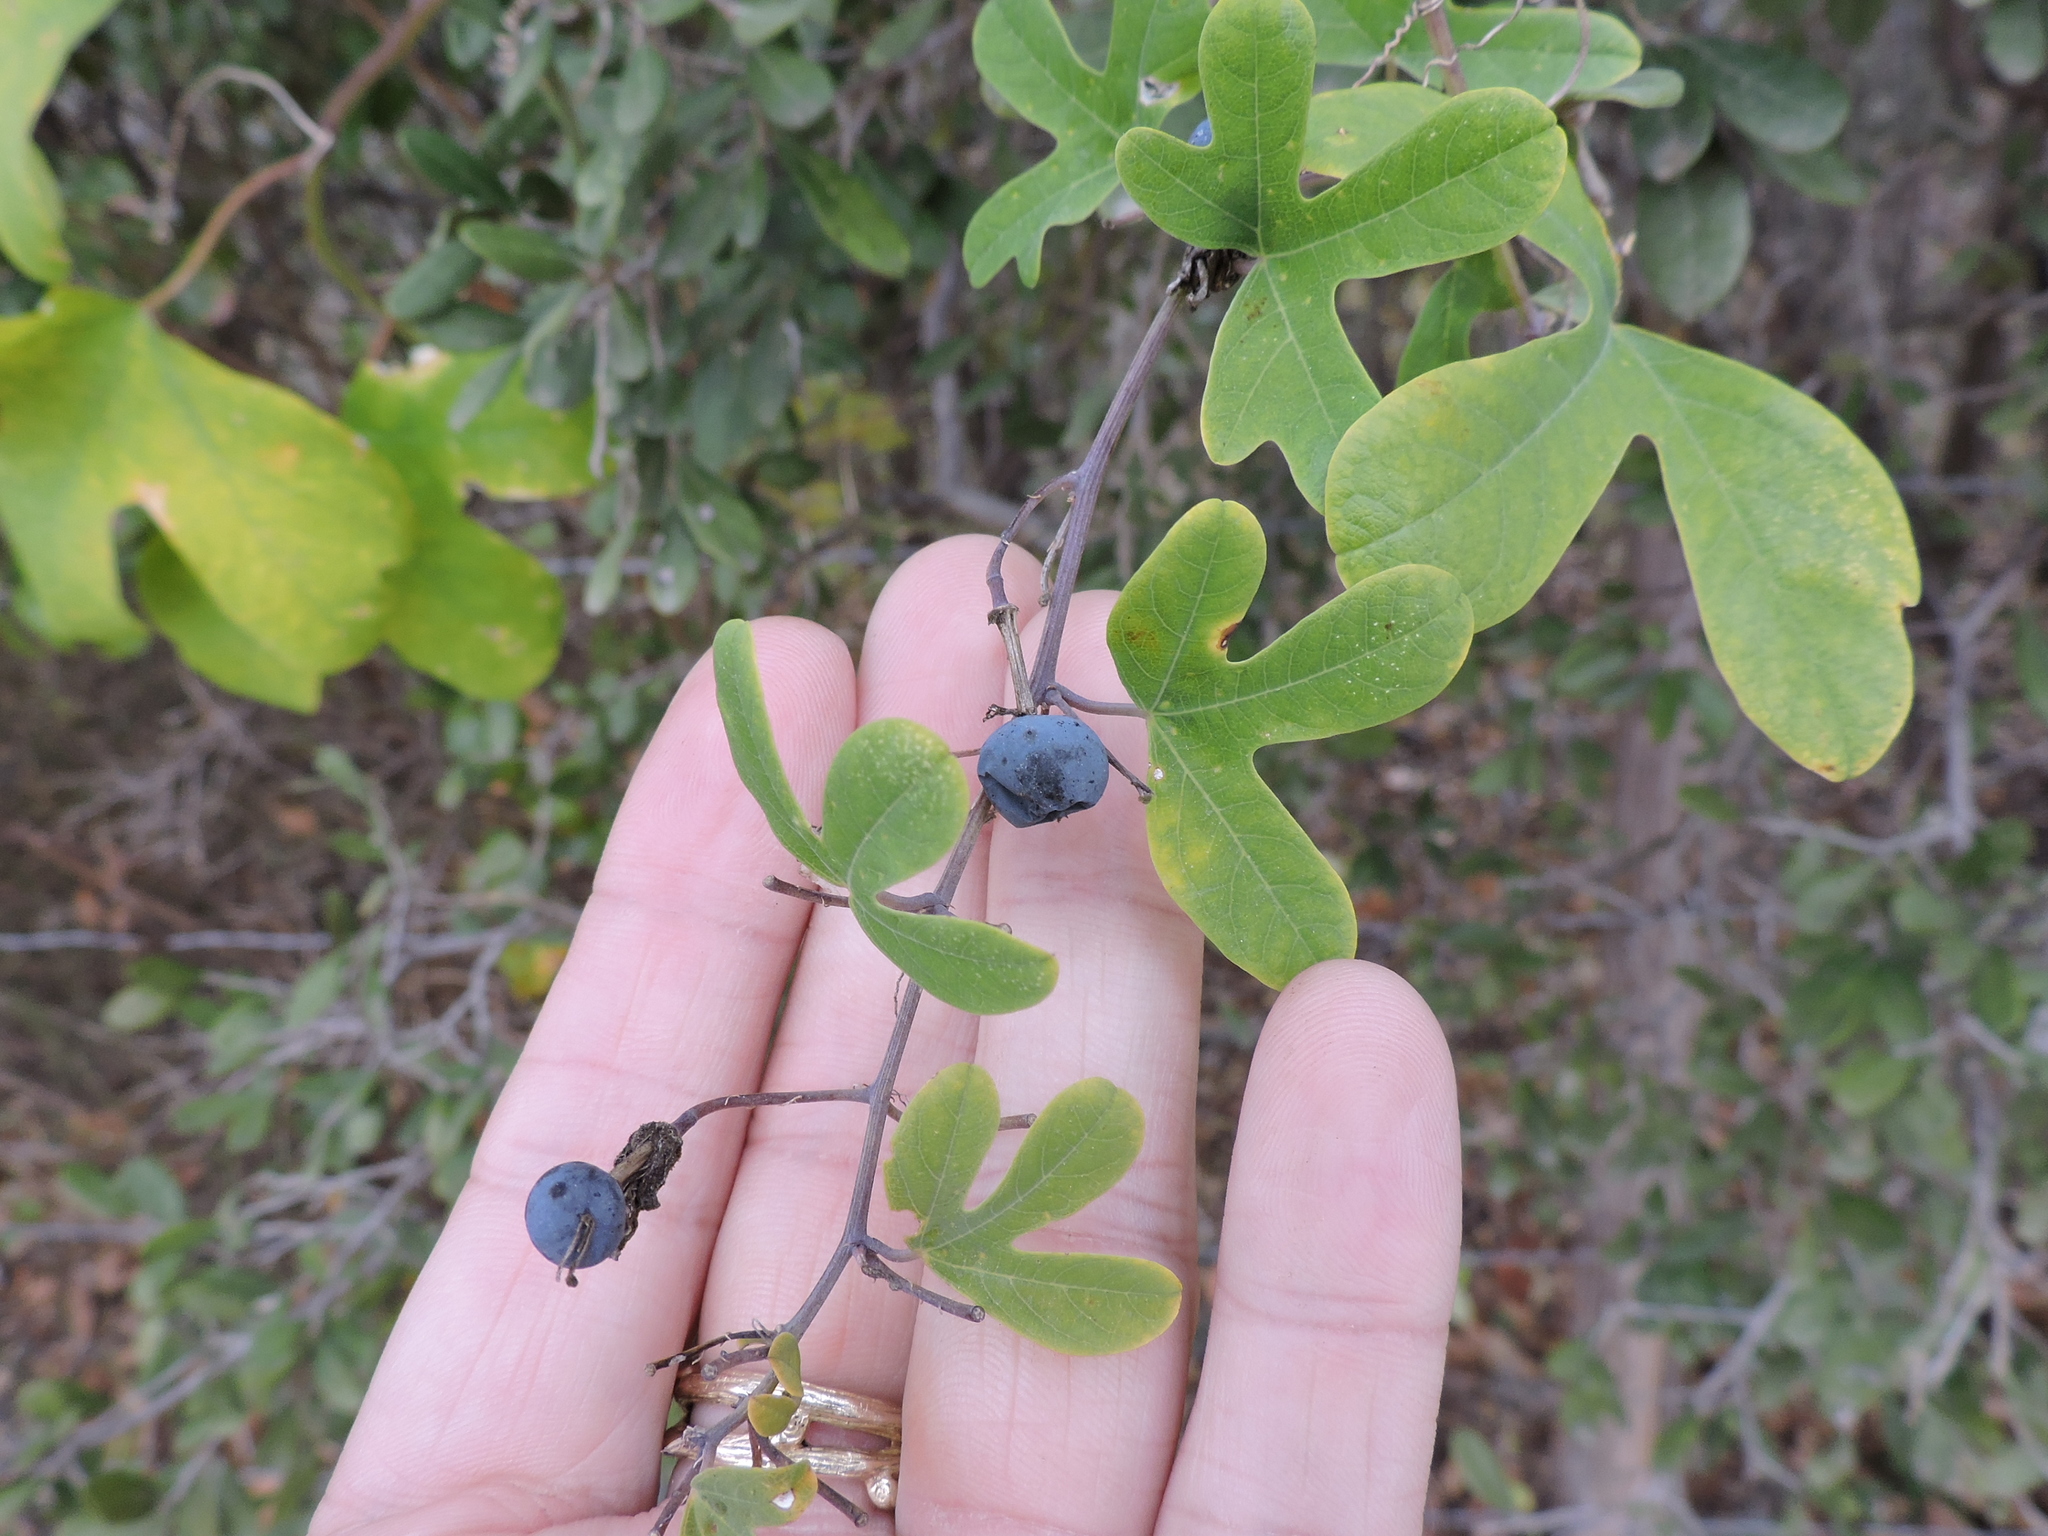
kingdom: Plantae
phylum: Tracheophyta
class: Magnoliopsida
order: Malpighiales
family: Passifloraceae
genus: Passiflora
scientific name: Passiflora affinis
